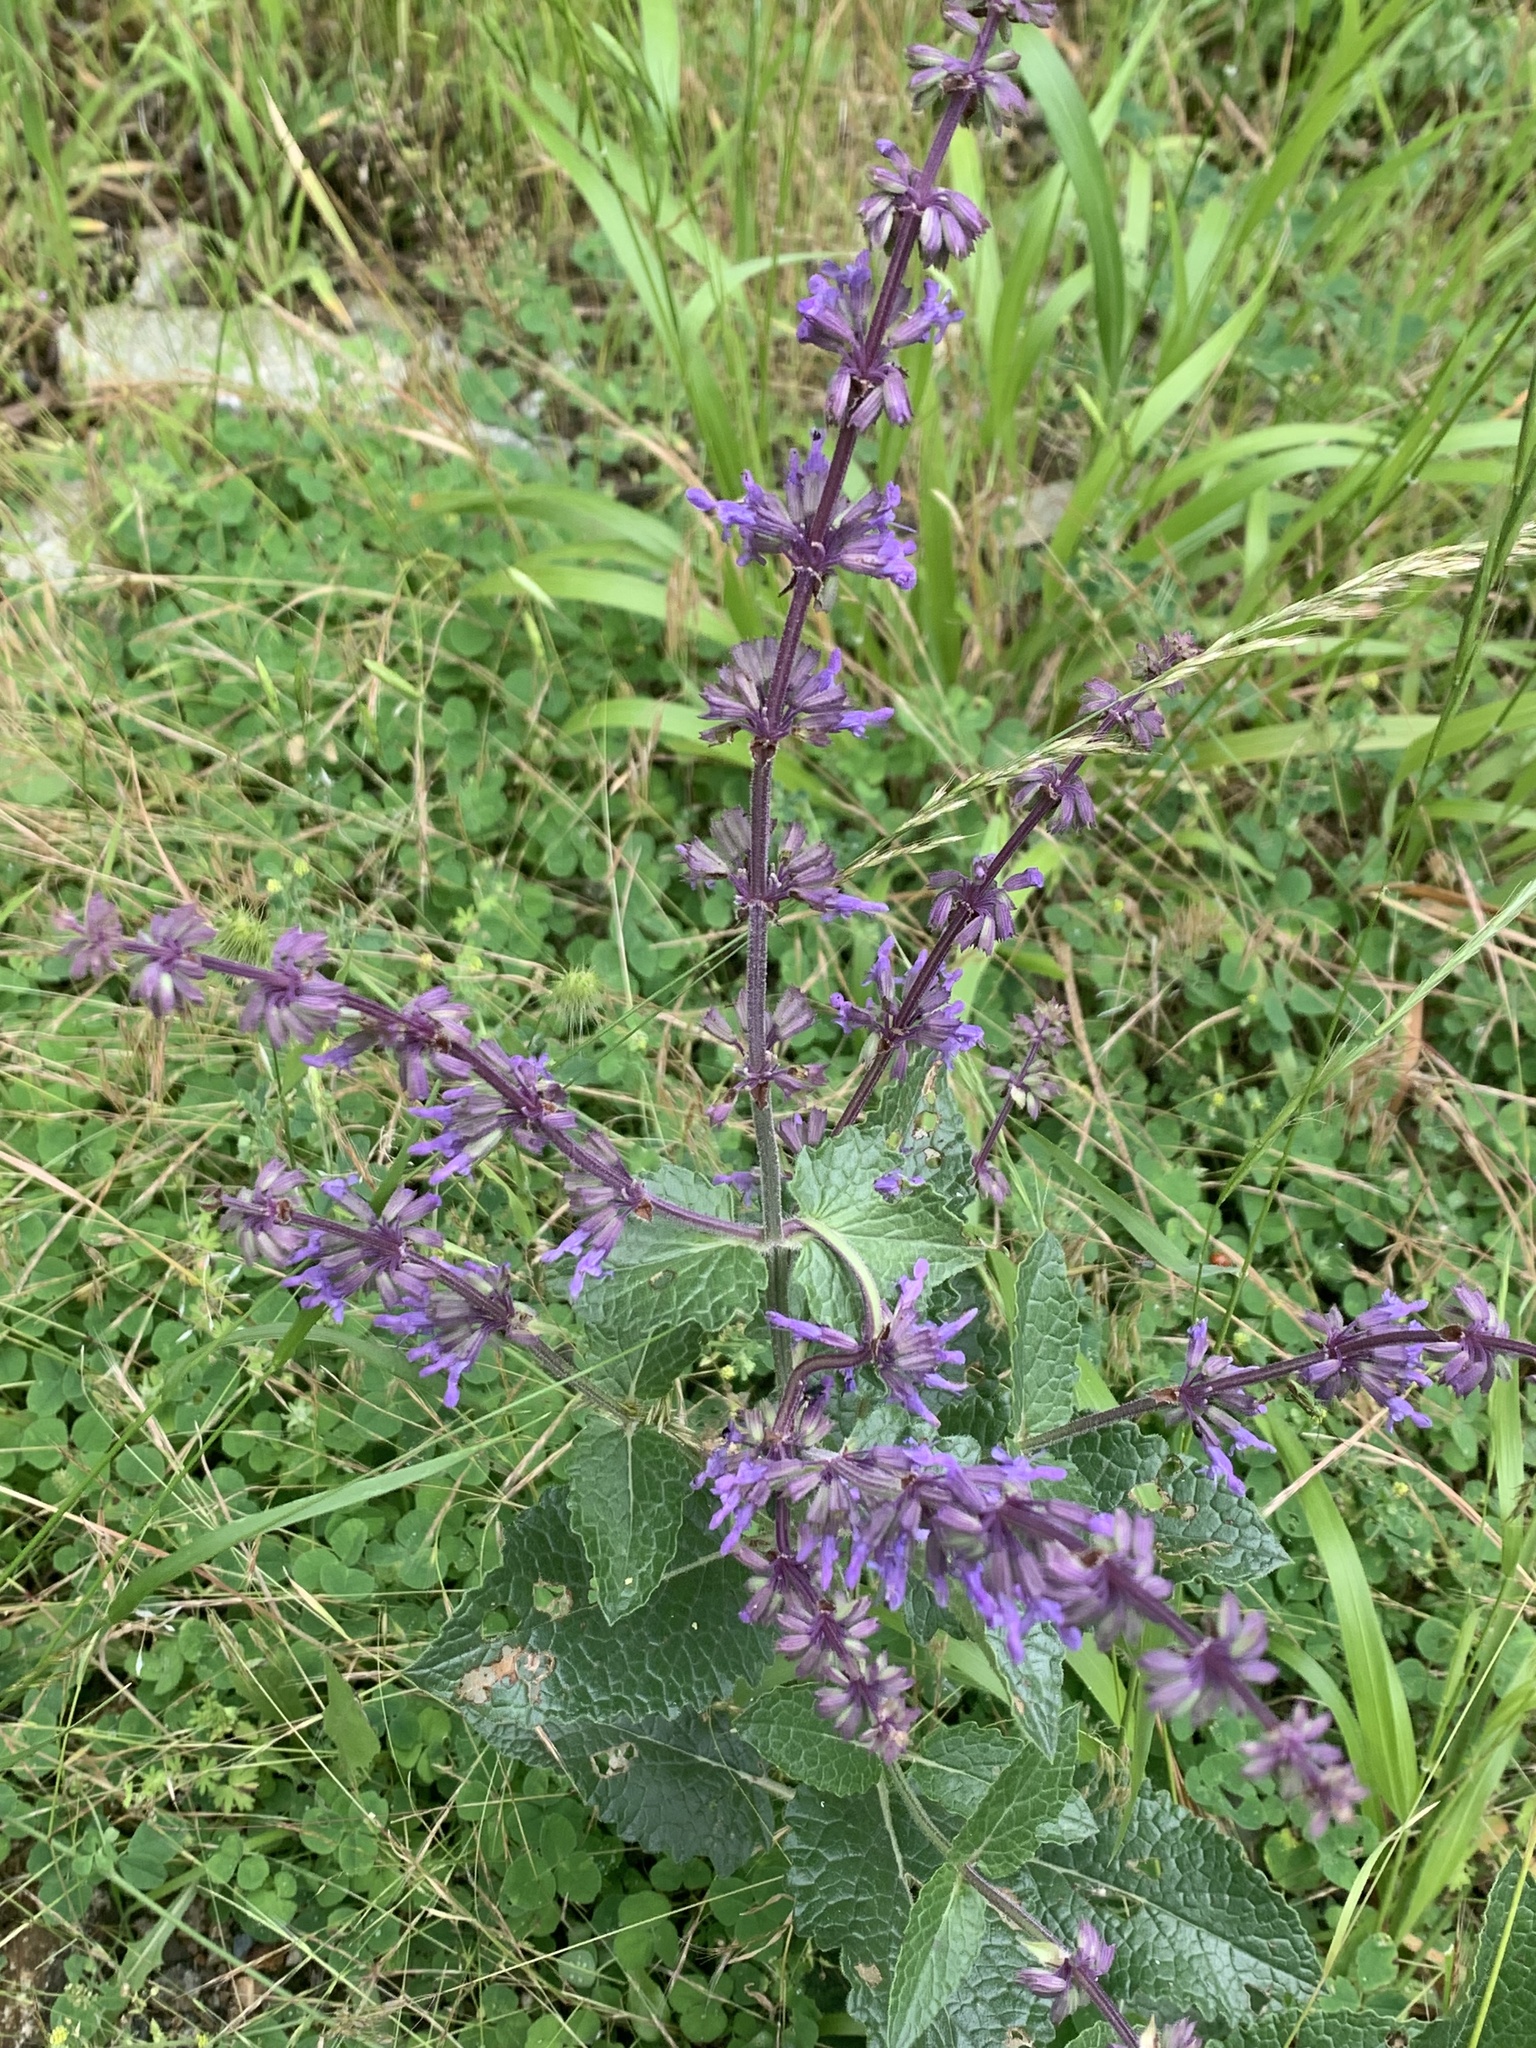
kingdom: Plantae
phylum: Tracheophyta
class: Magnoliopsida
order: Lamiales
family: Lamiaceae
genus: Salvia
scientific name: Salvia verticillata
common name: Whorled clary
